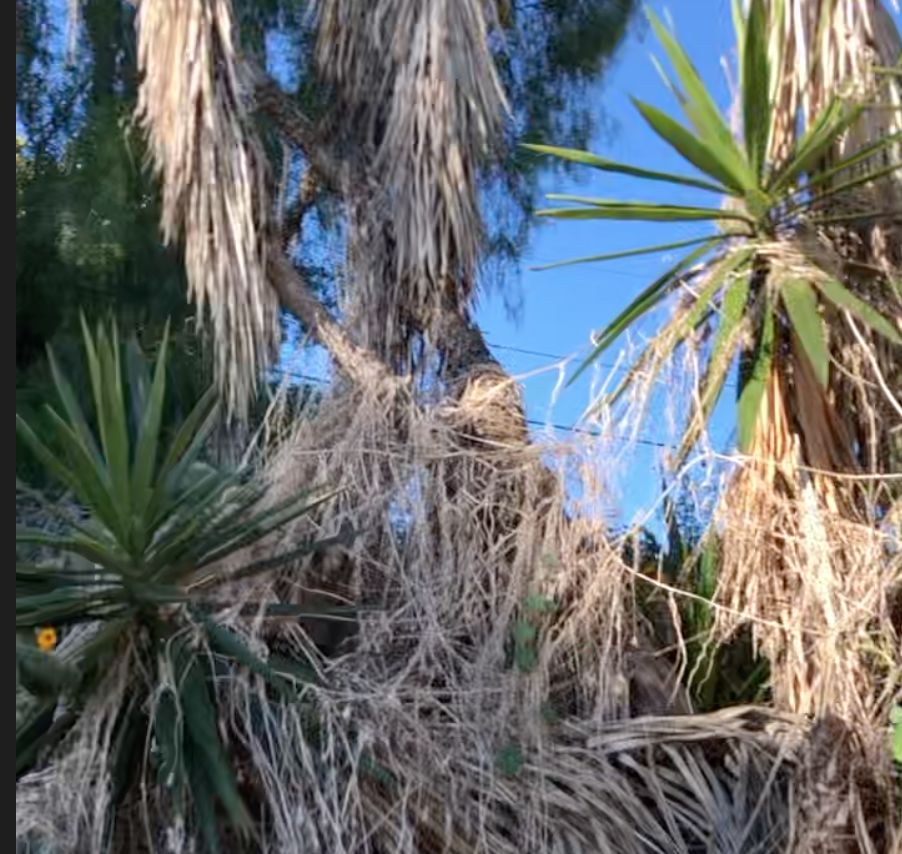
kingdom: Plantae
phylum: Tracheophyta
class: Liliopsida
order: Asparagales
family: Asparagaceae
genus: Yucca
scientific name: Yucca gigantea
